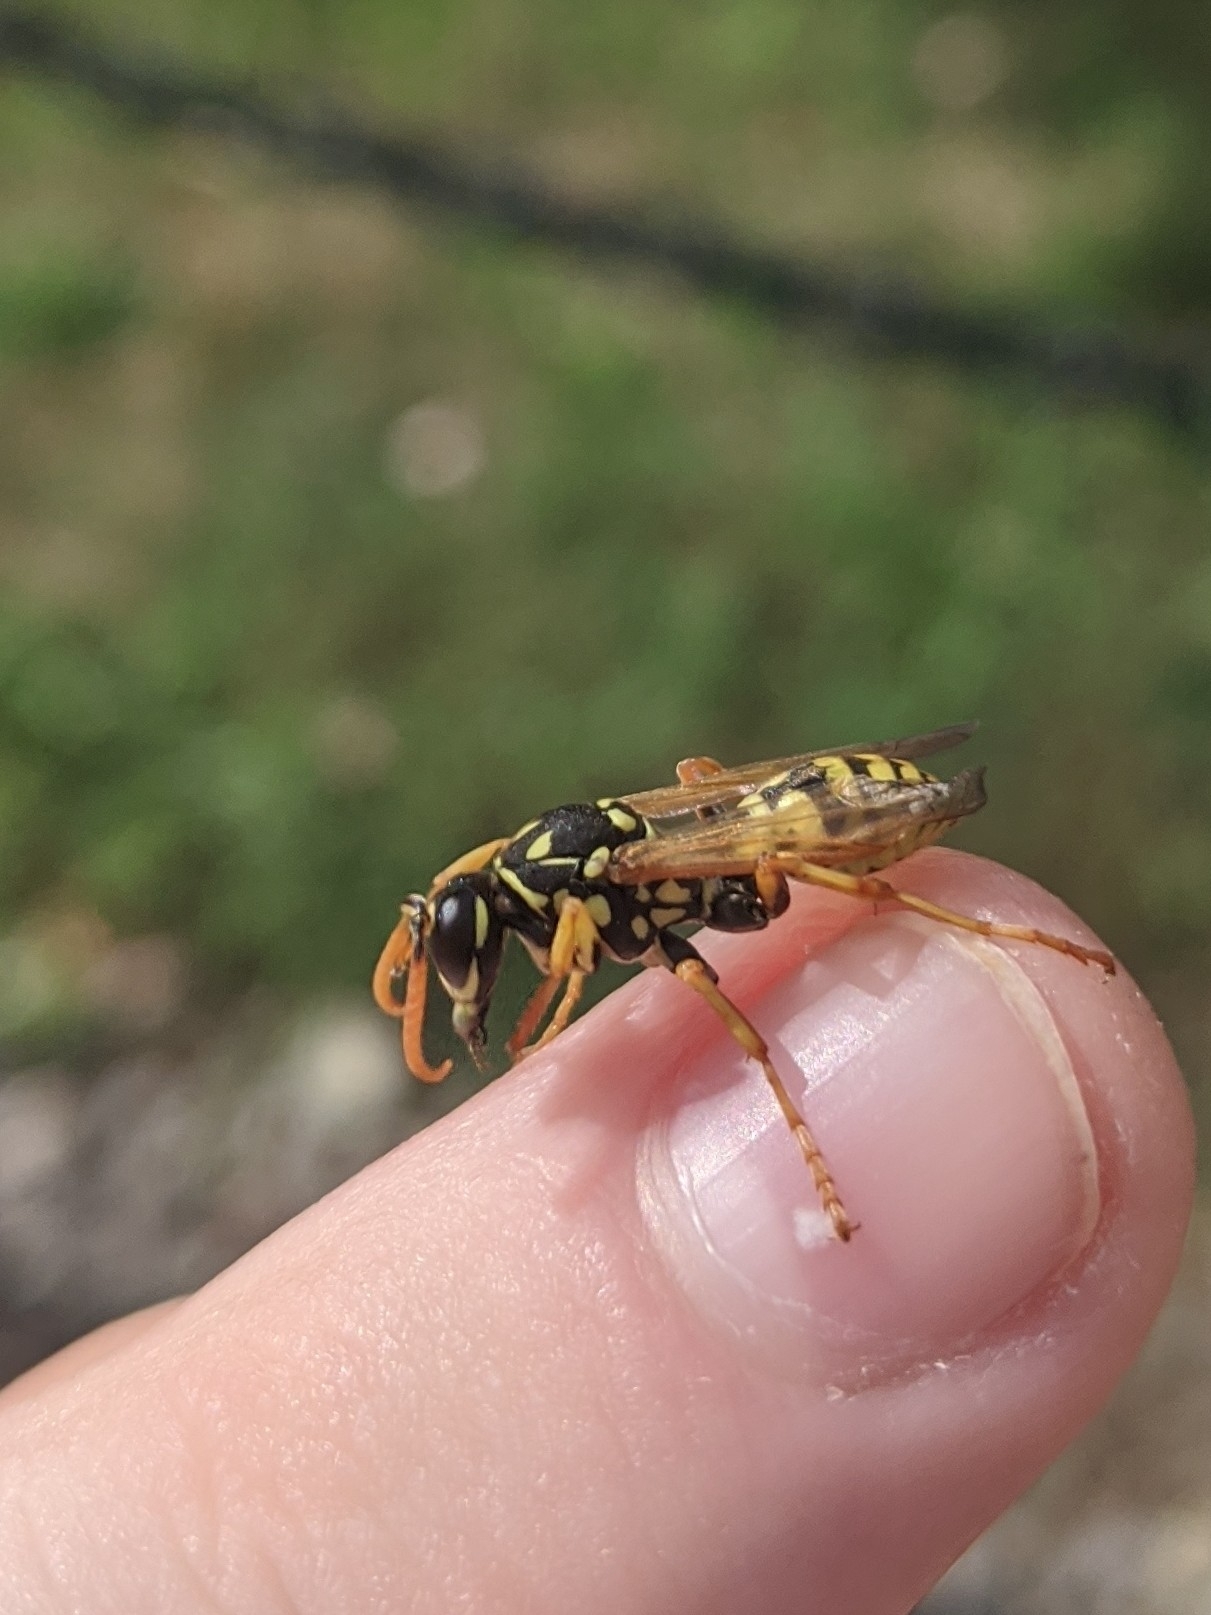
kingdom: Animalia
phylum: Arthropoda
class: Insecta
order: Hymenoptera
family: Eumenidae
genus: Polistes
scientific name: Polistes dominula
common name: Paper wasp
